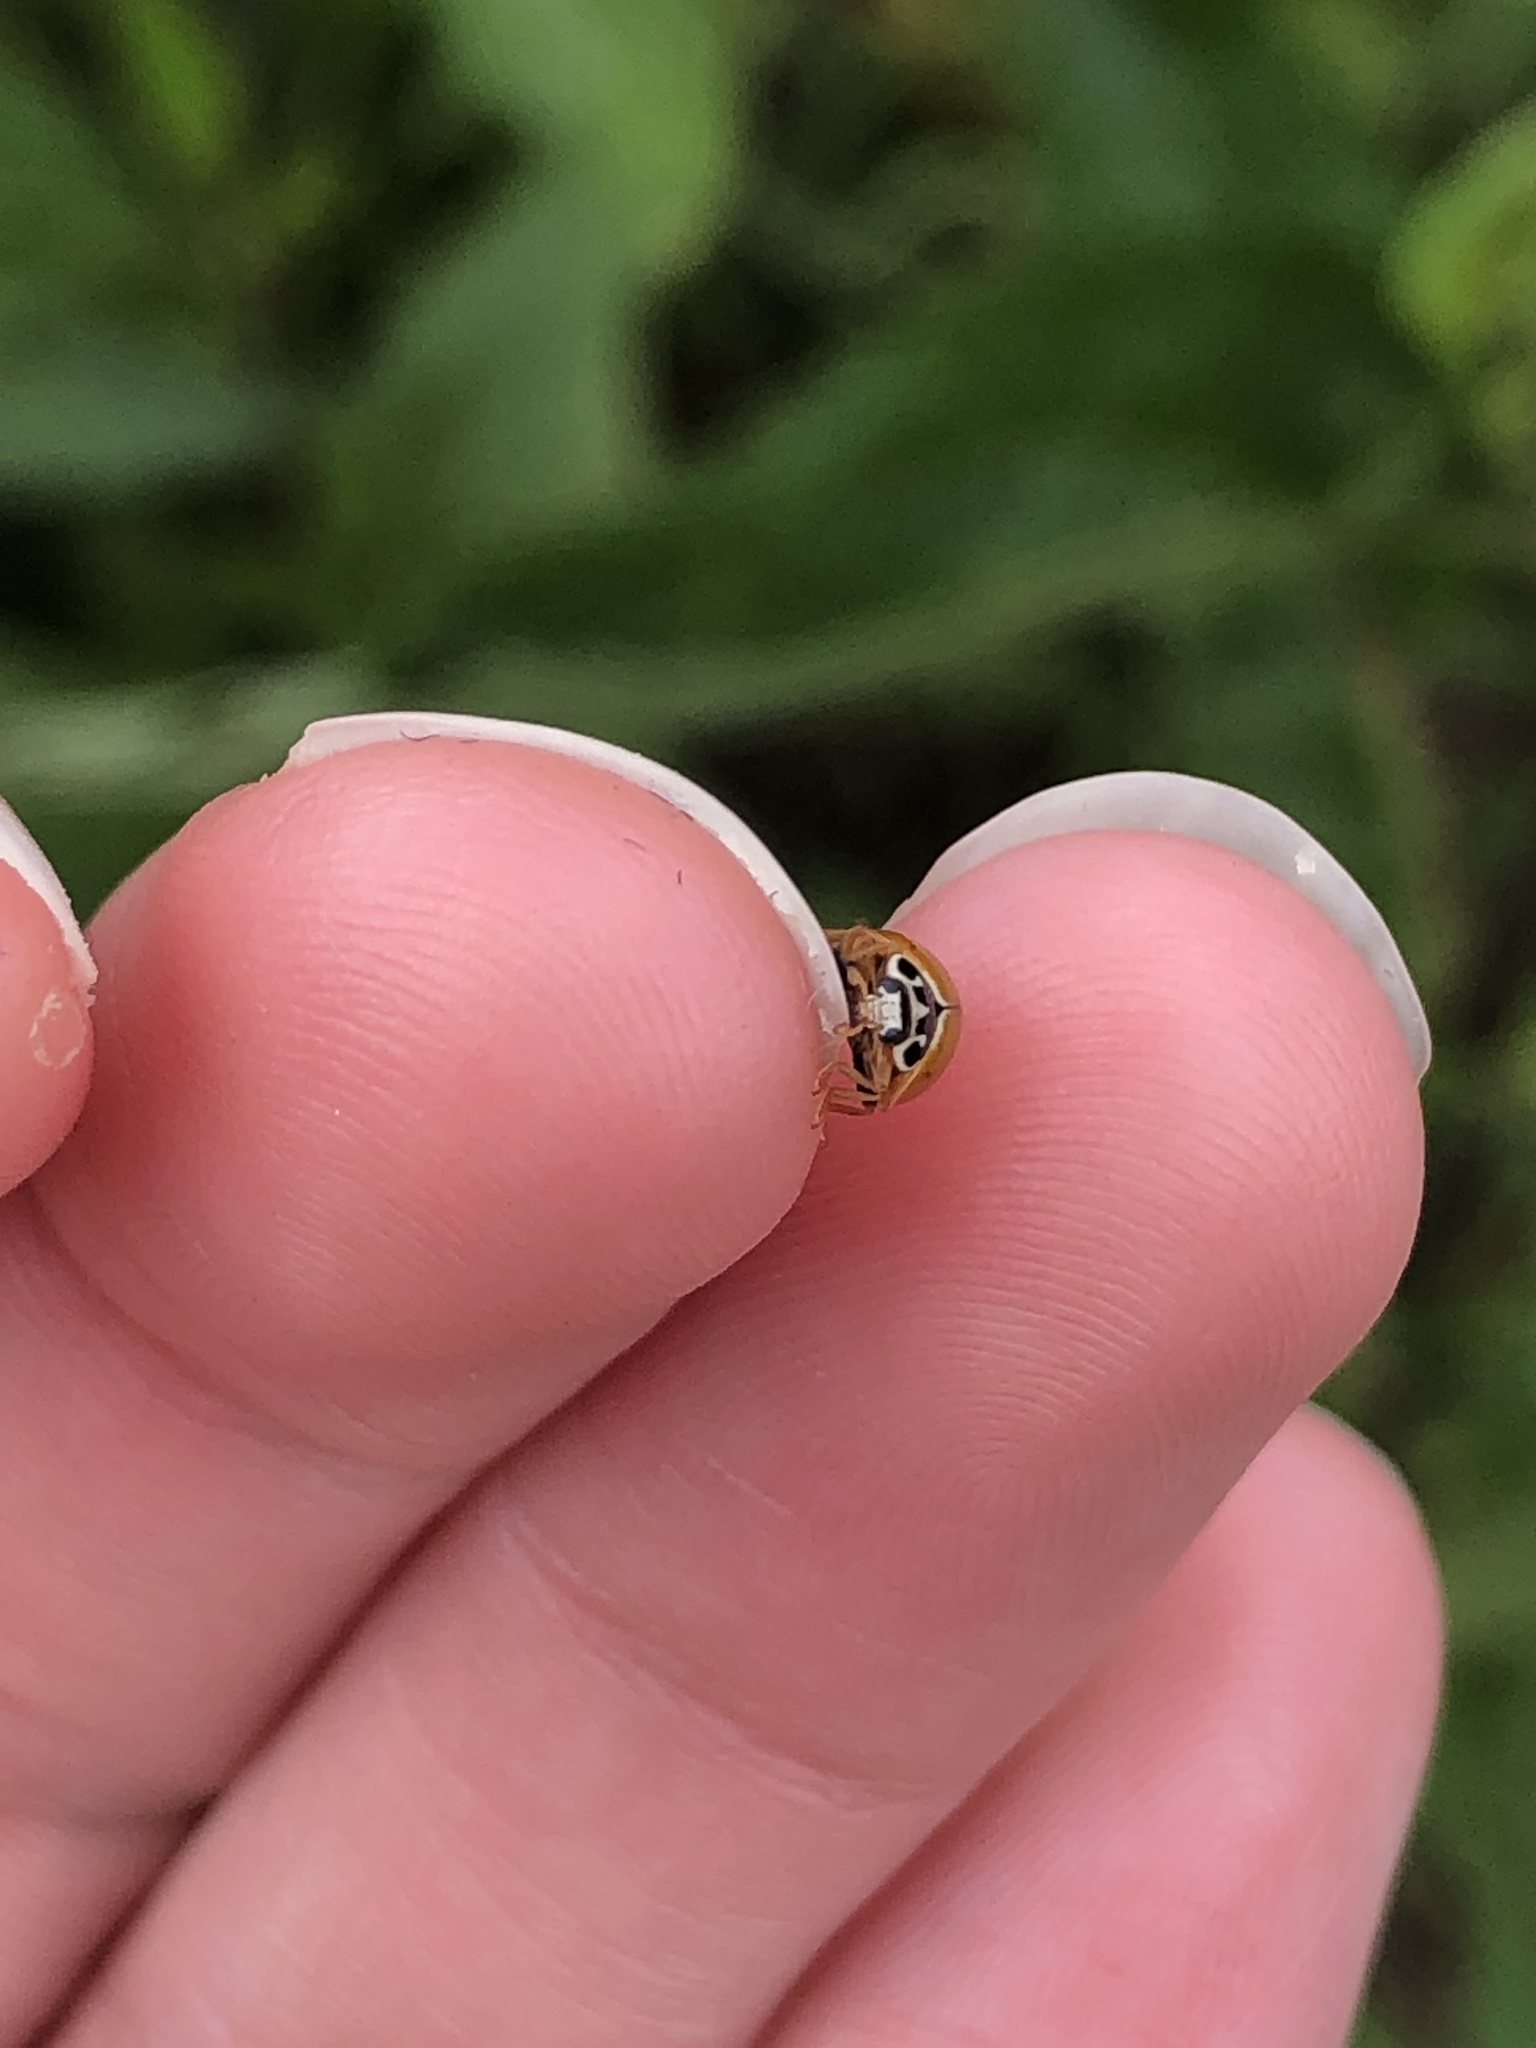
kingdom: Animalia
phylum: Arthropoda
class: Insecta
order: Coleoptera
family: Coccinellidae
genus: Cycloneda
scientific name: Cycloneda munda
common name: Polished lady beetle
